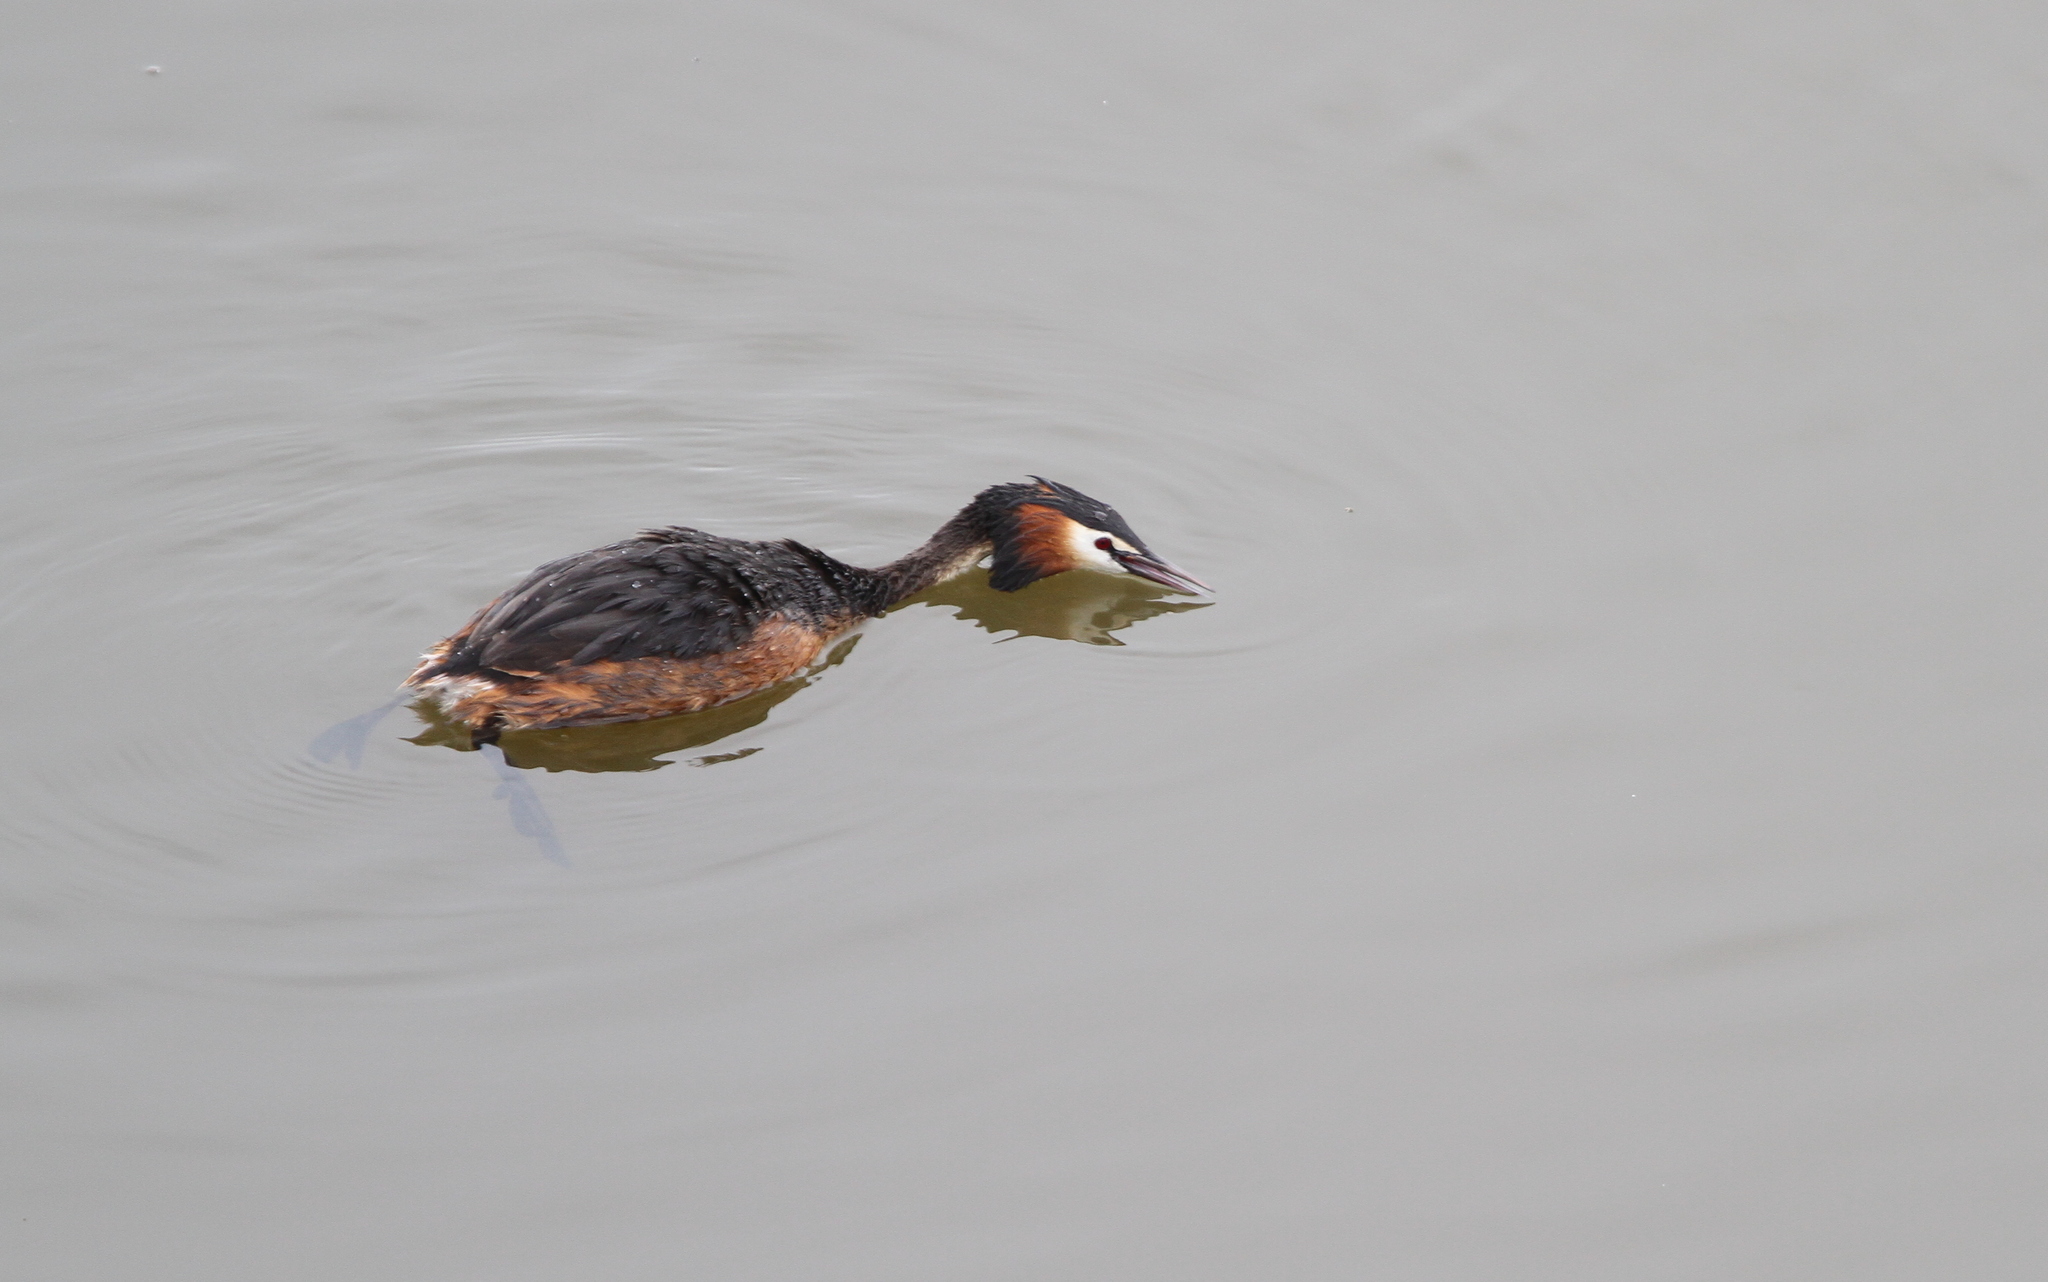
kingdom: Animalia
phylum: Chordata
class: Aves
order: Podicipediformes
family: Podicipedidae
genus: Podiceps
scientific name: Podiceps cristatus
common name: Great crested grebe
